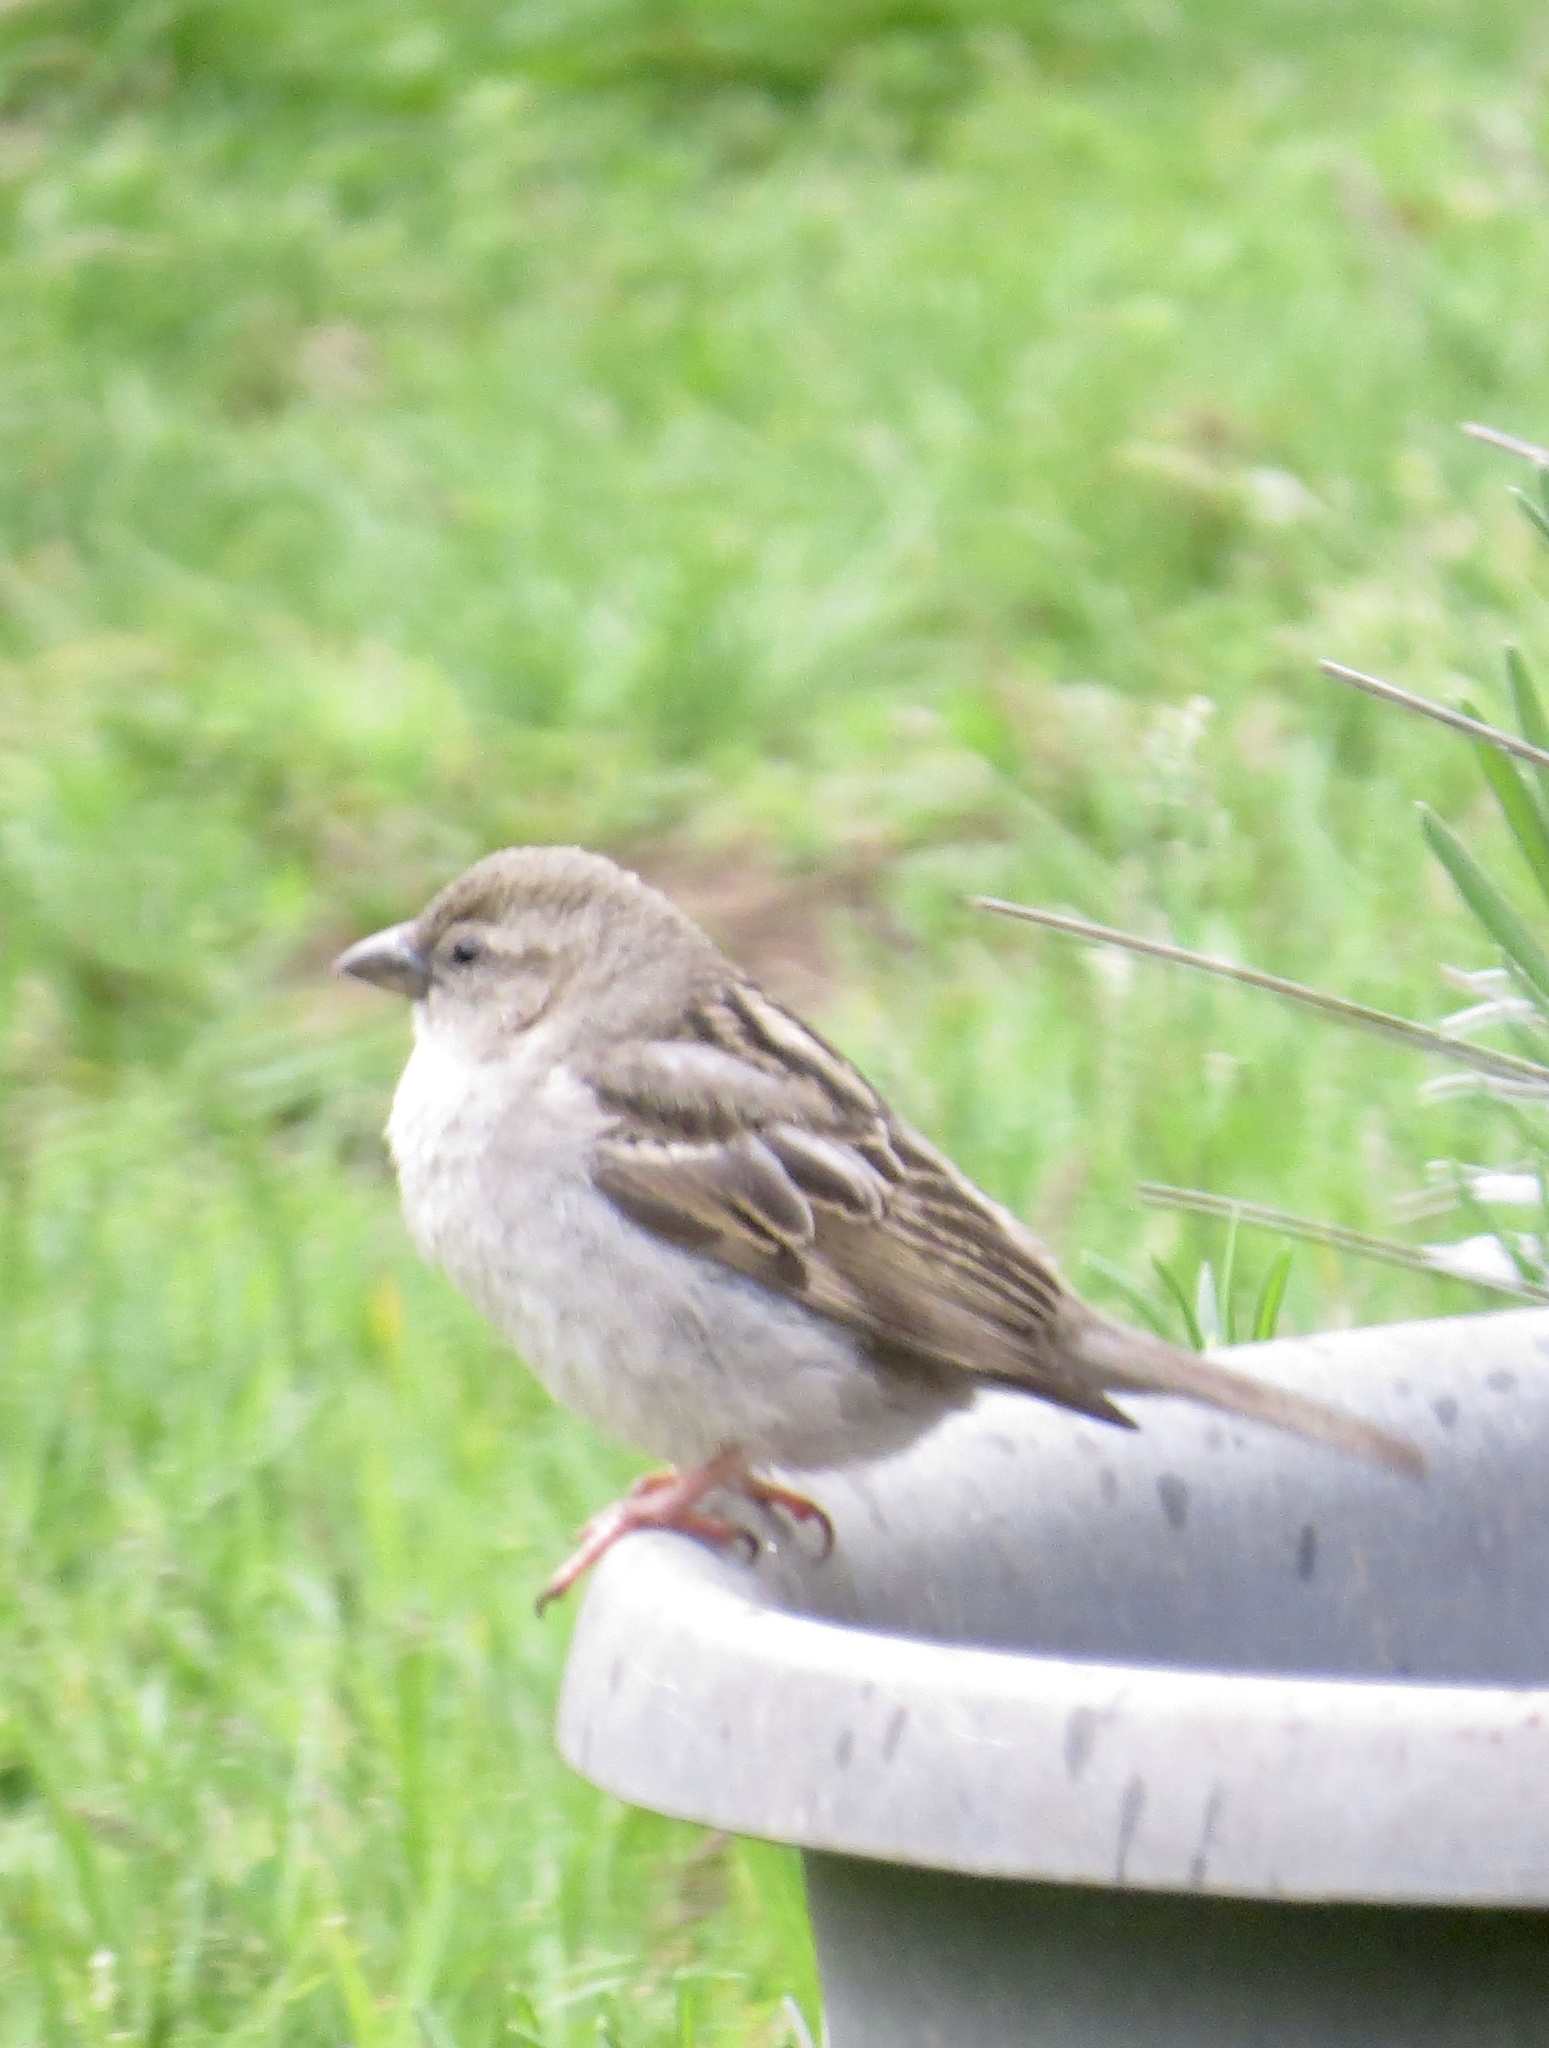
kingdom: Animalia
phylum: Chordata
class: Aves
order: Passeriformes
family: Passeridae
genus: Passer
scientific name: Passer domesticus
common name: House sparrow
